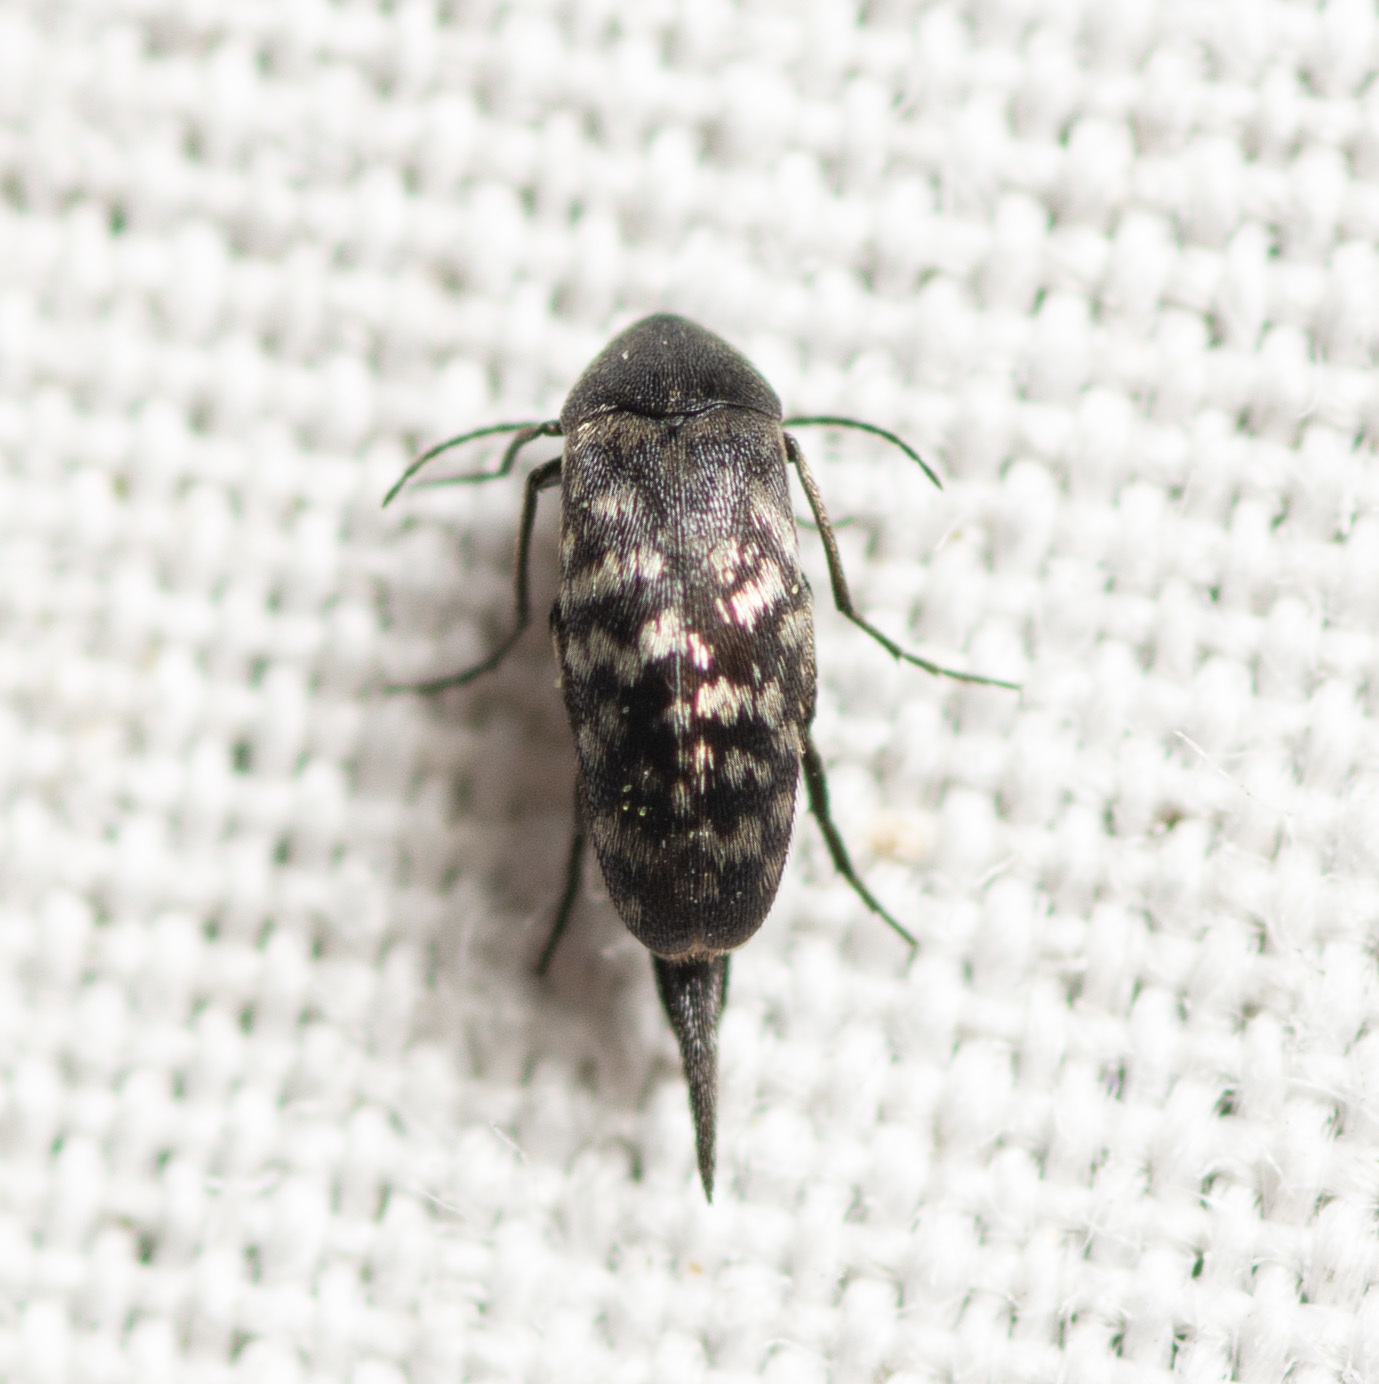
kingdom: Animalia
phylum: Arthropoda
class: Insecta
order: Coleoptera
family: Mordellidae
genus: Mordellina
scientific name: Mordellina pustulata
